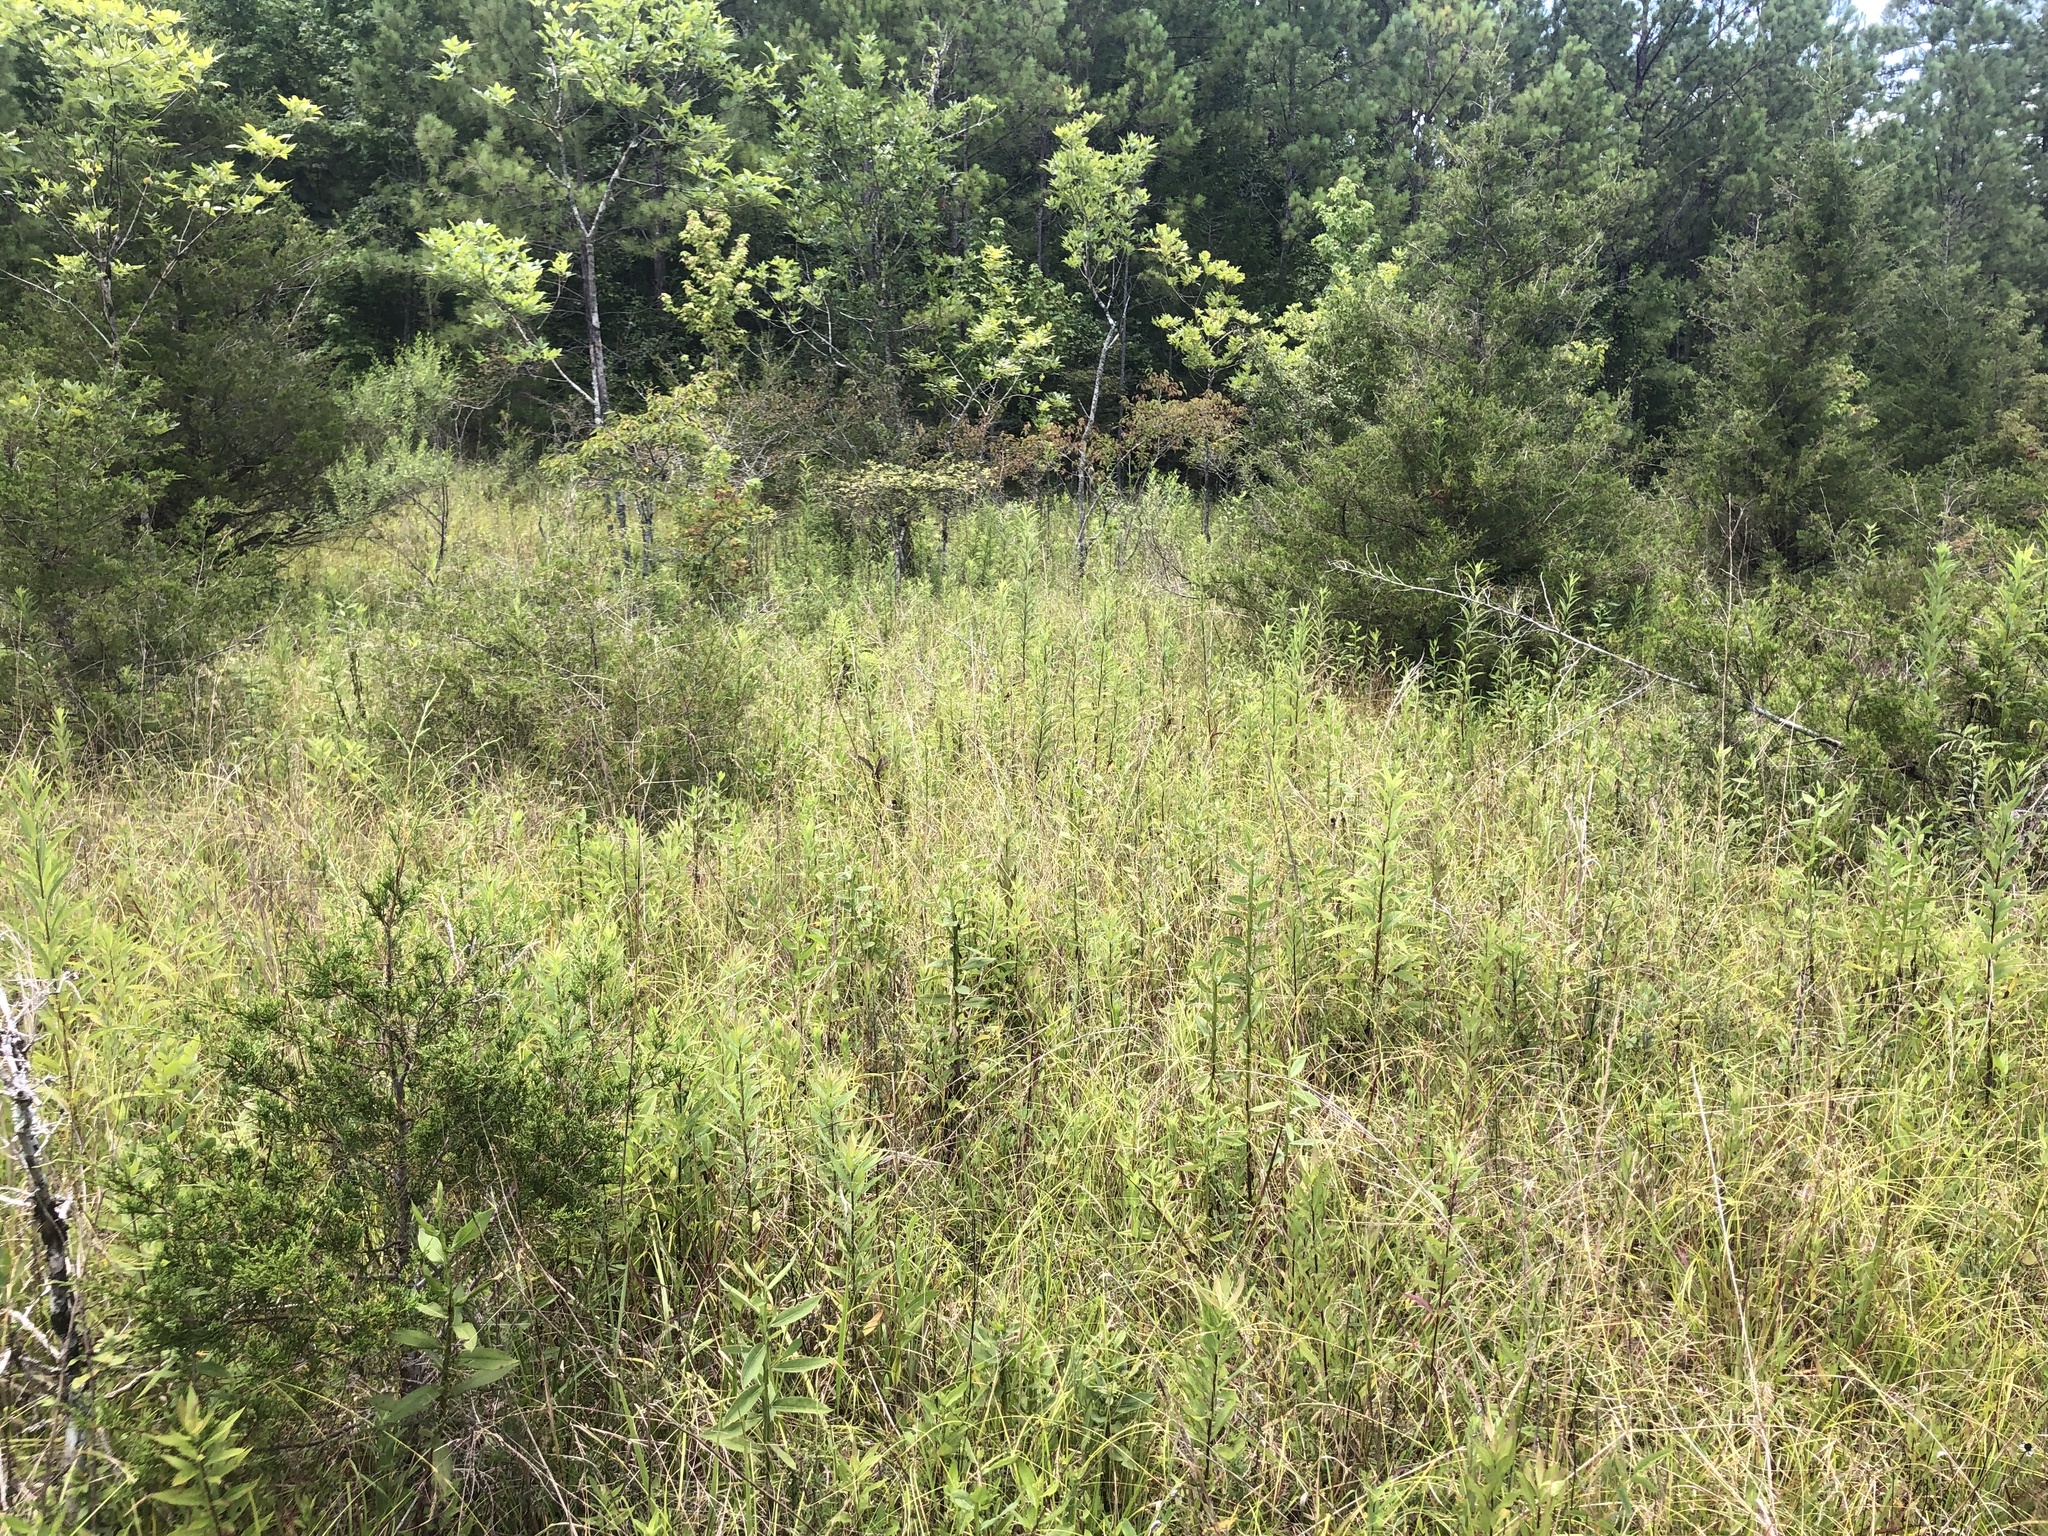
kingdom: Plantae
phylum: Tracheophyta
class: Pinopsida
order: Pinales
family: Cupressaceae
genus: Juniperus
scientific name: Juniperus virginiana
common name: Red juniper
